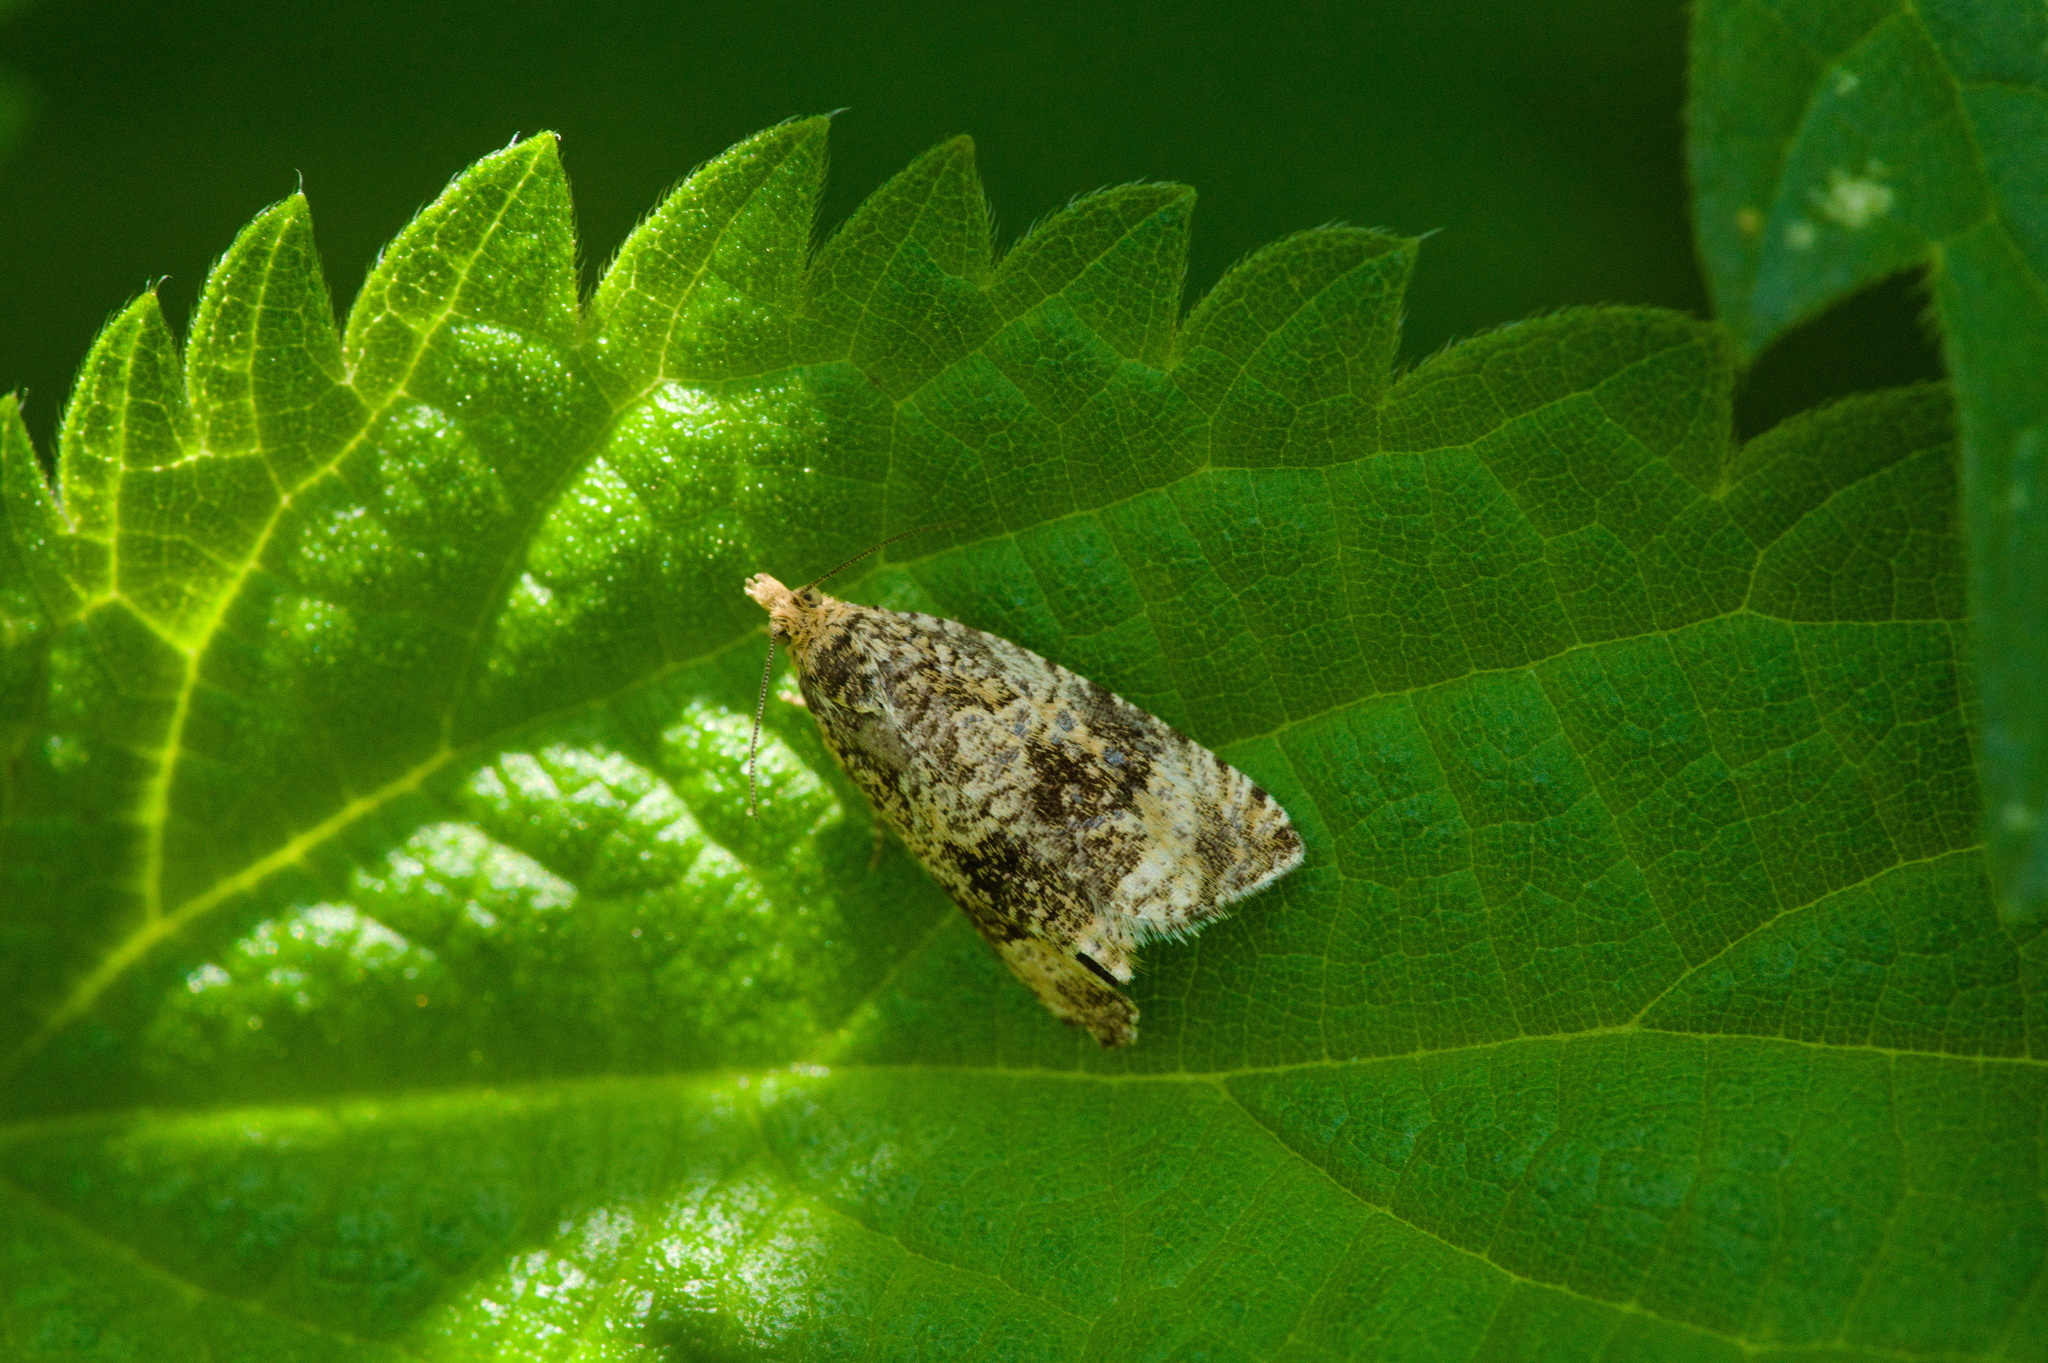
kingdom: Animalia
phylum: Arthropoda
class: Insecta
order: Lepidoptera
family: Tortricidae
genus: Syricoris
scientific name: Syricoris lacunana
